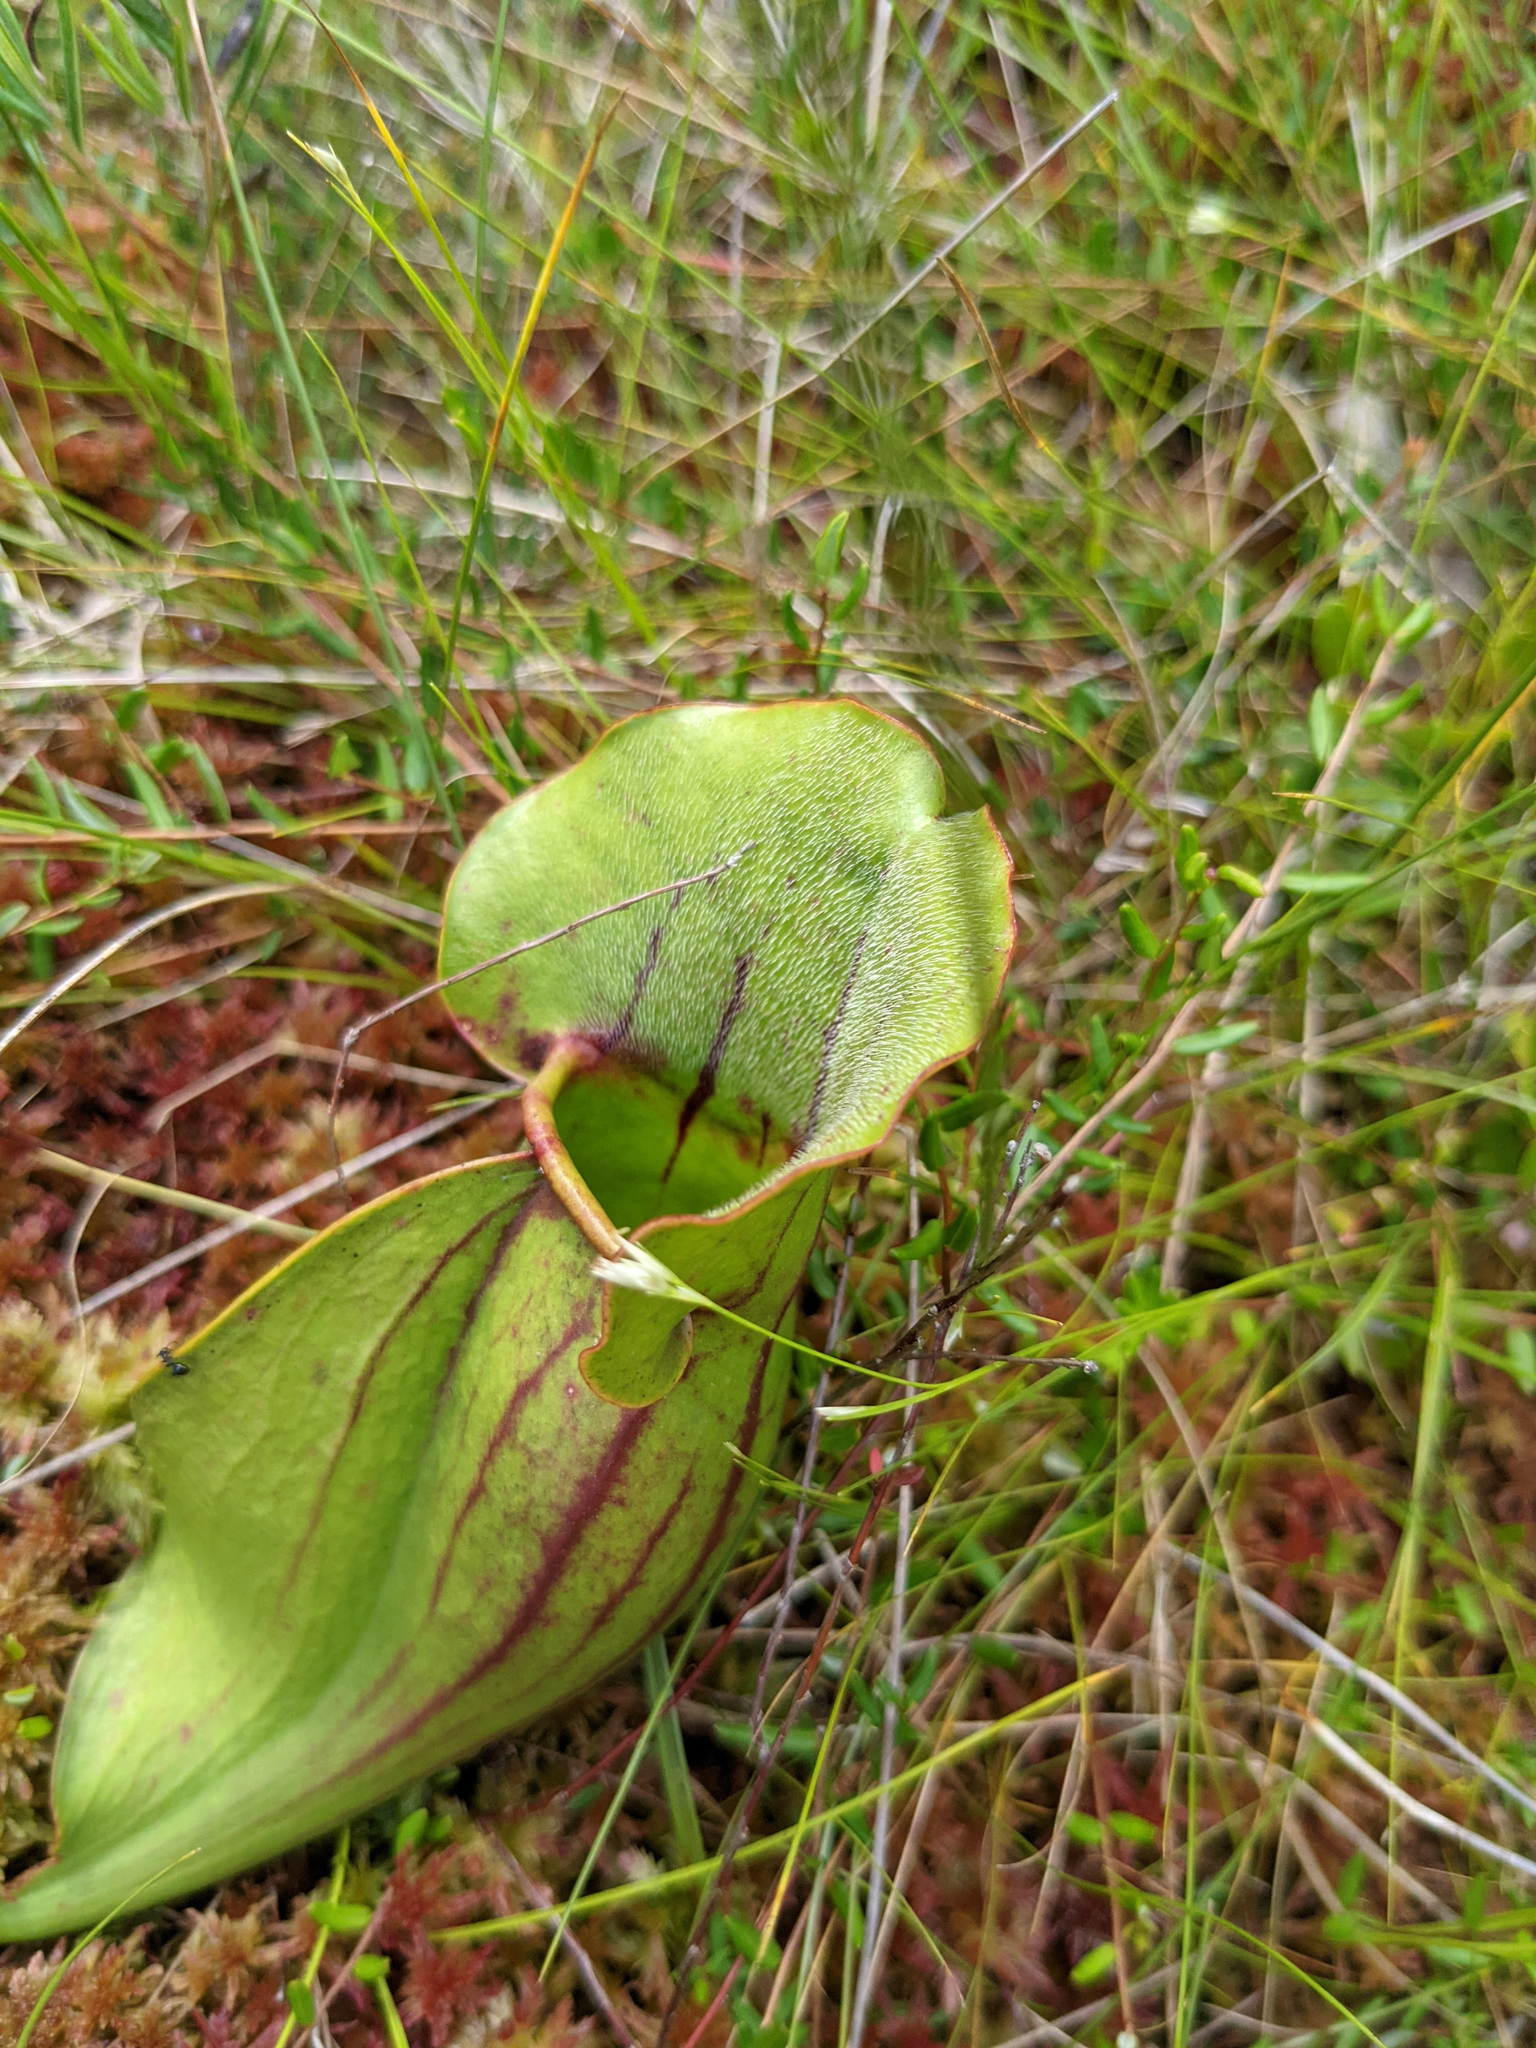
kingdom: Plantae
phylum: Tracheophyta
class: Magnoliopsida
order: Ericales
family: Sarraceniaceae
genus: Sarracenia
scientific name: Sarracenia purpurea
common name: Pitcherplant
